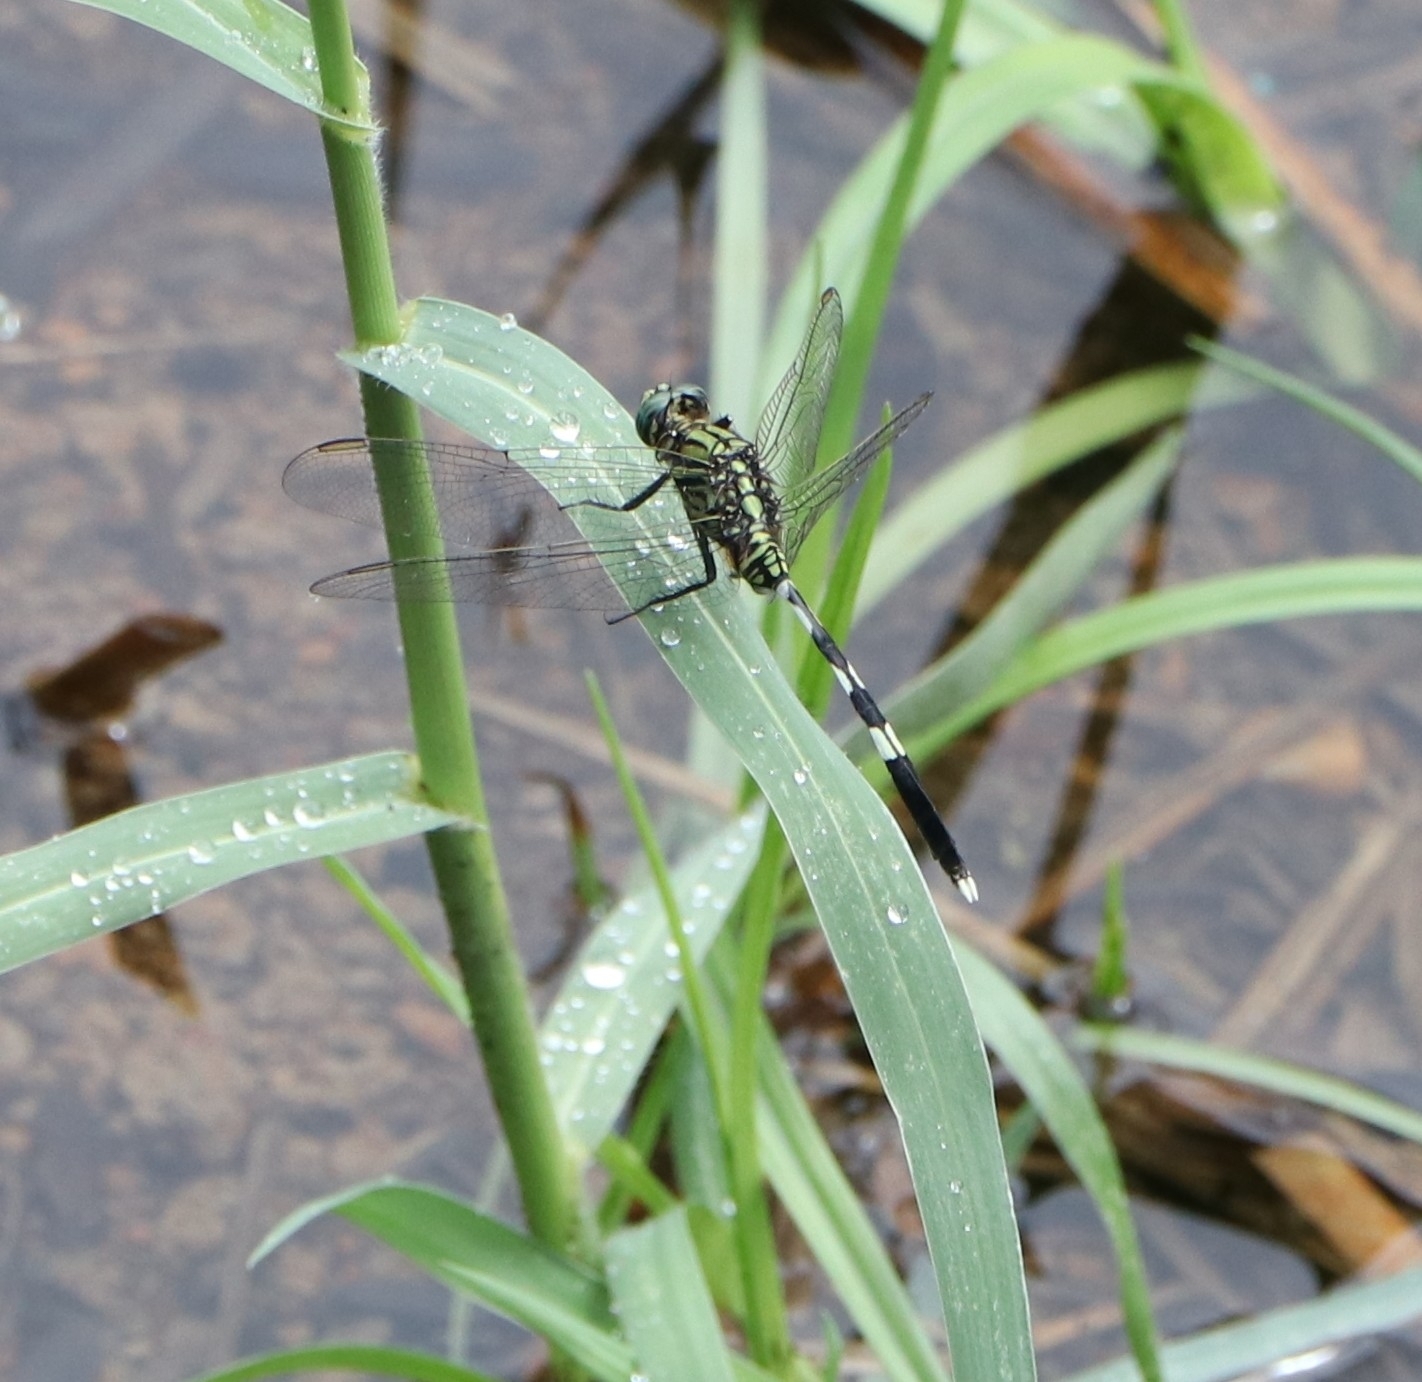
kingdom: Animalia
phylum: Arthropoda
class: Insecta
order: Odonata
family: Libellulidae
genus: Orthetrum
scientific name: Orthetrum sabina
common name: Slender skimmer
